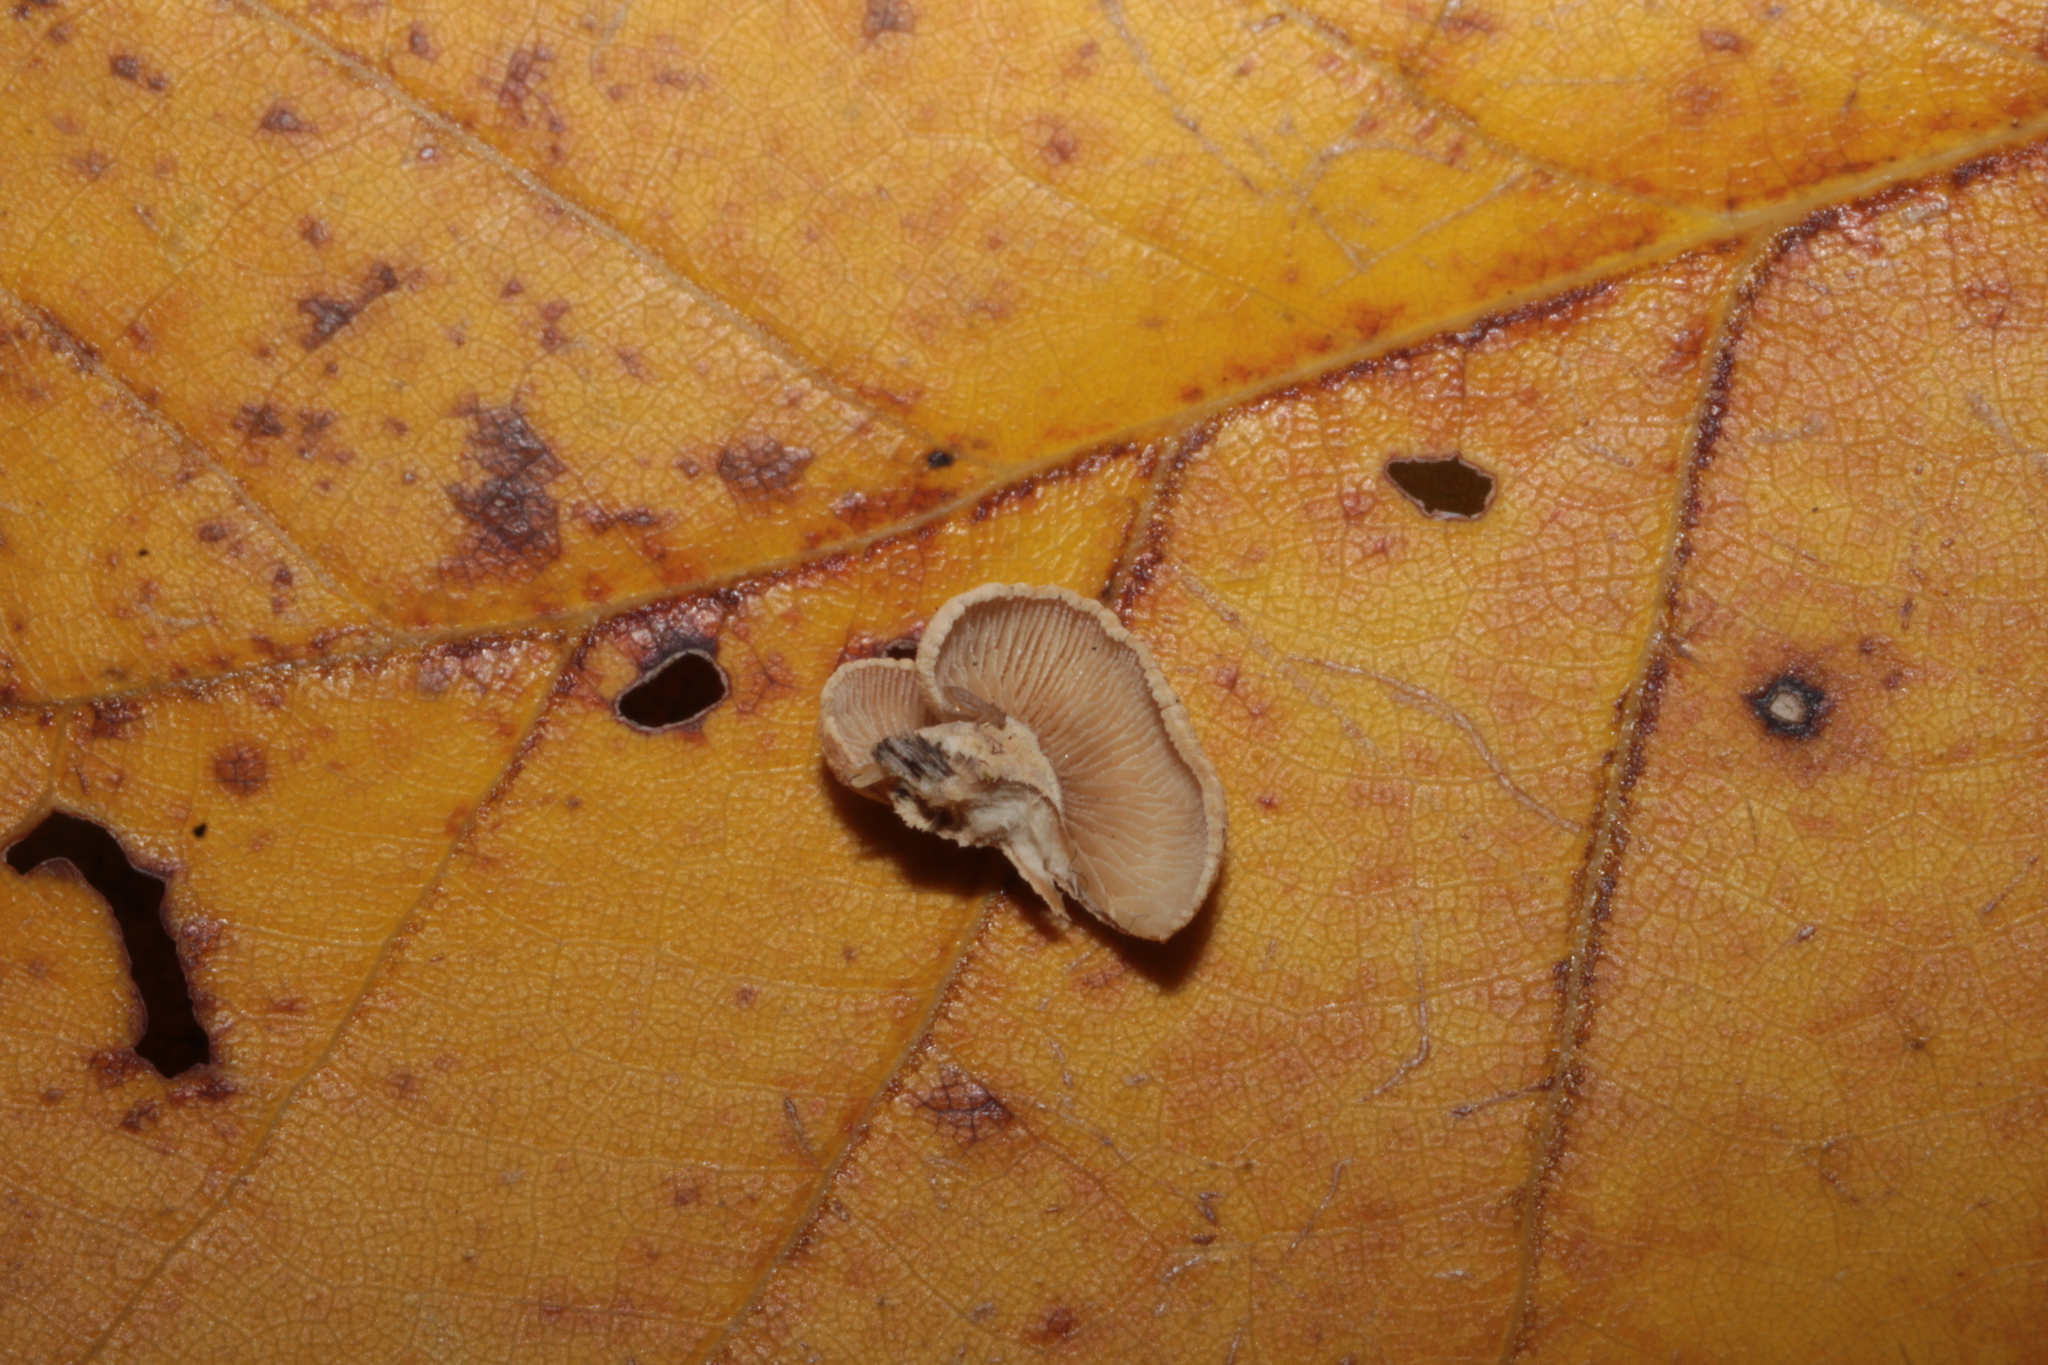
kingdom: Fungi
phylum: Basidiomycota
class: Agaricomycetes
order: Agaricales
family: Mycenaceae
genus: Panellus
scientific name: Panellus stipticus
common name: Bitter oysterling
